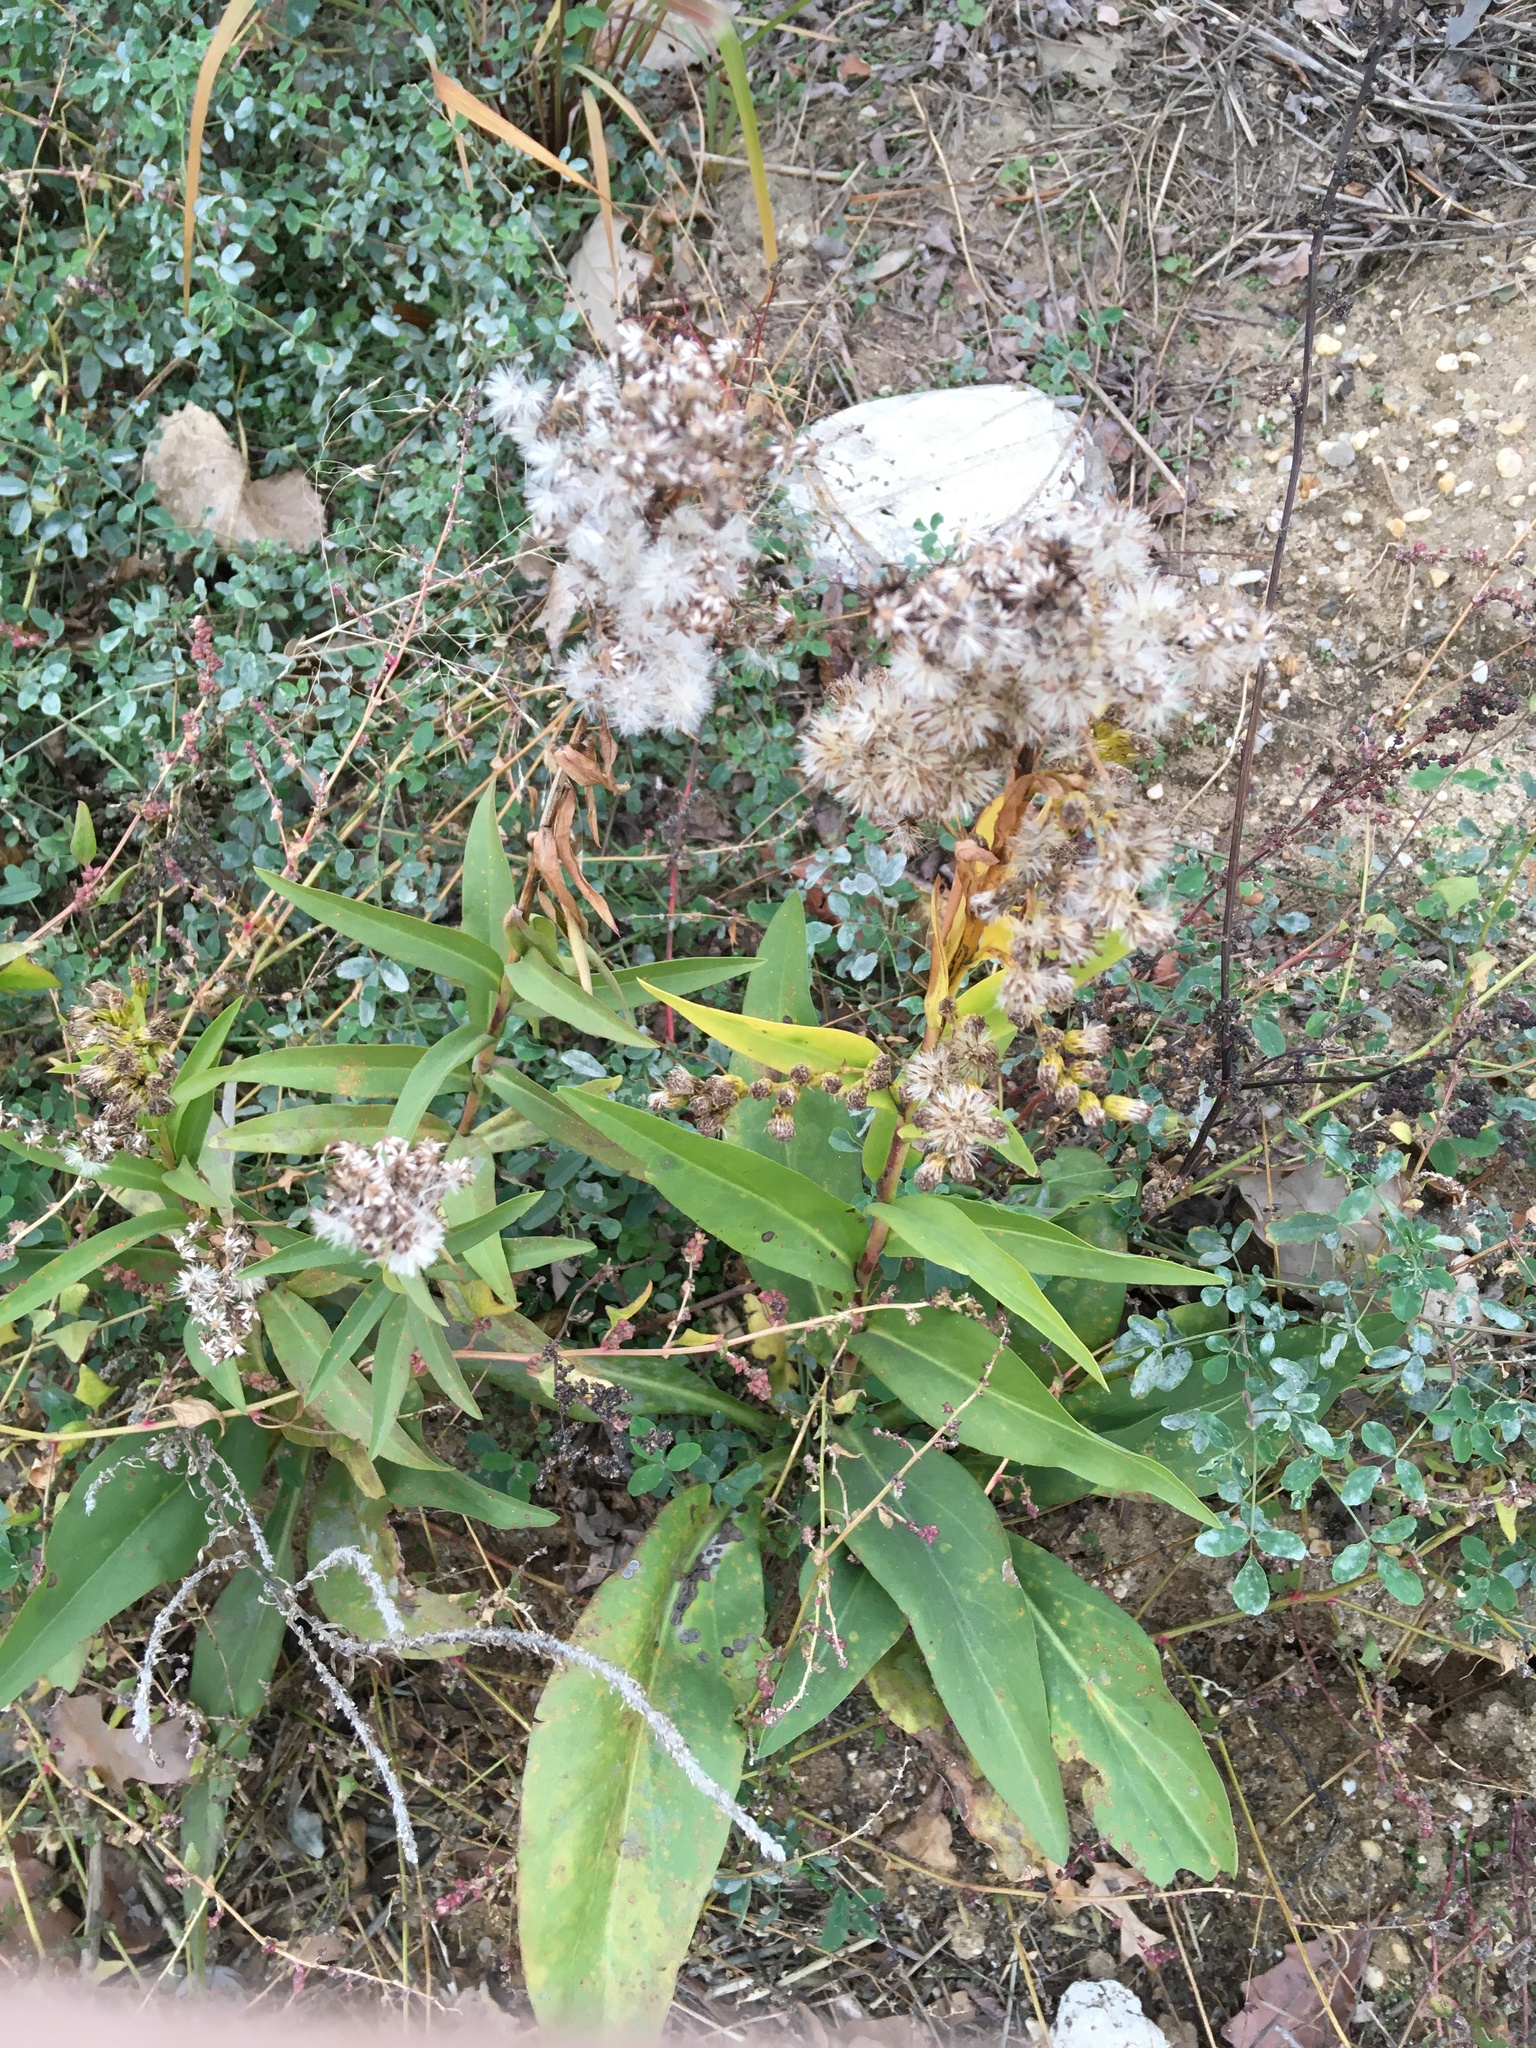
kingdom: Plantae
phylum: Tracheophyta
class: Magnoliopsida
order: Asterales
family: Asteraceae
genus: Solidago
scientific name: Solidago sempervirens
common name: Salt-marsh goldenrod
